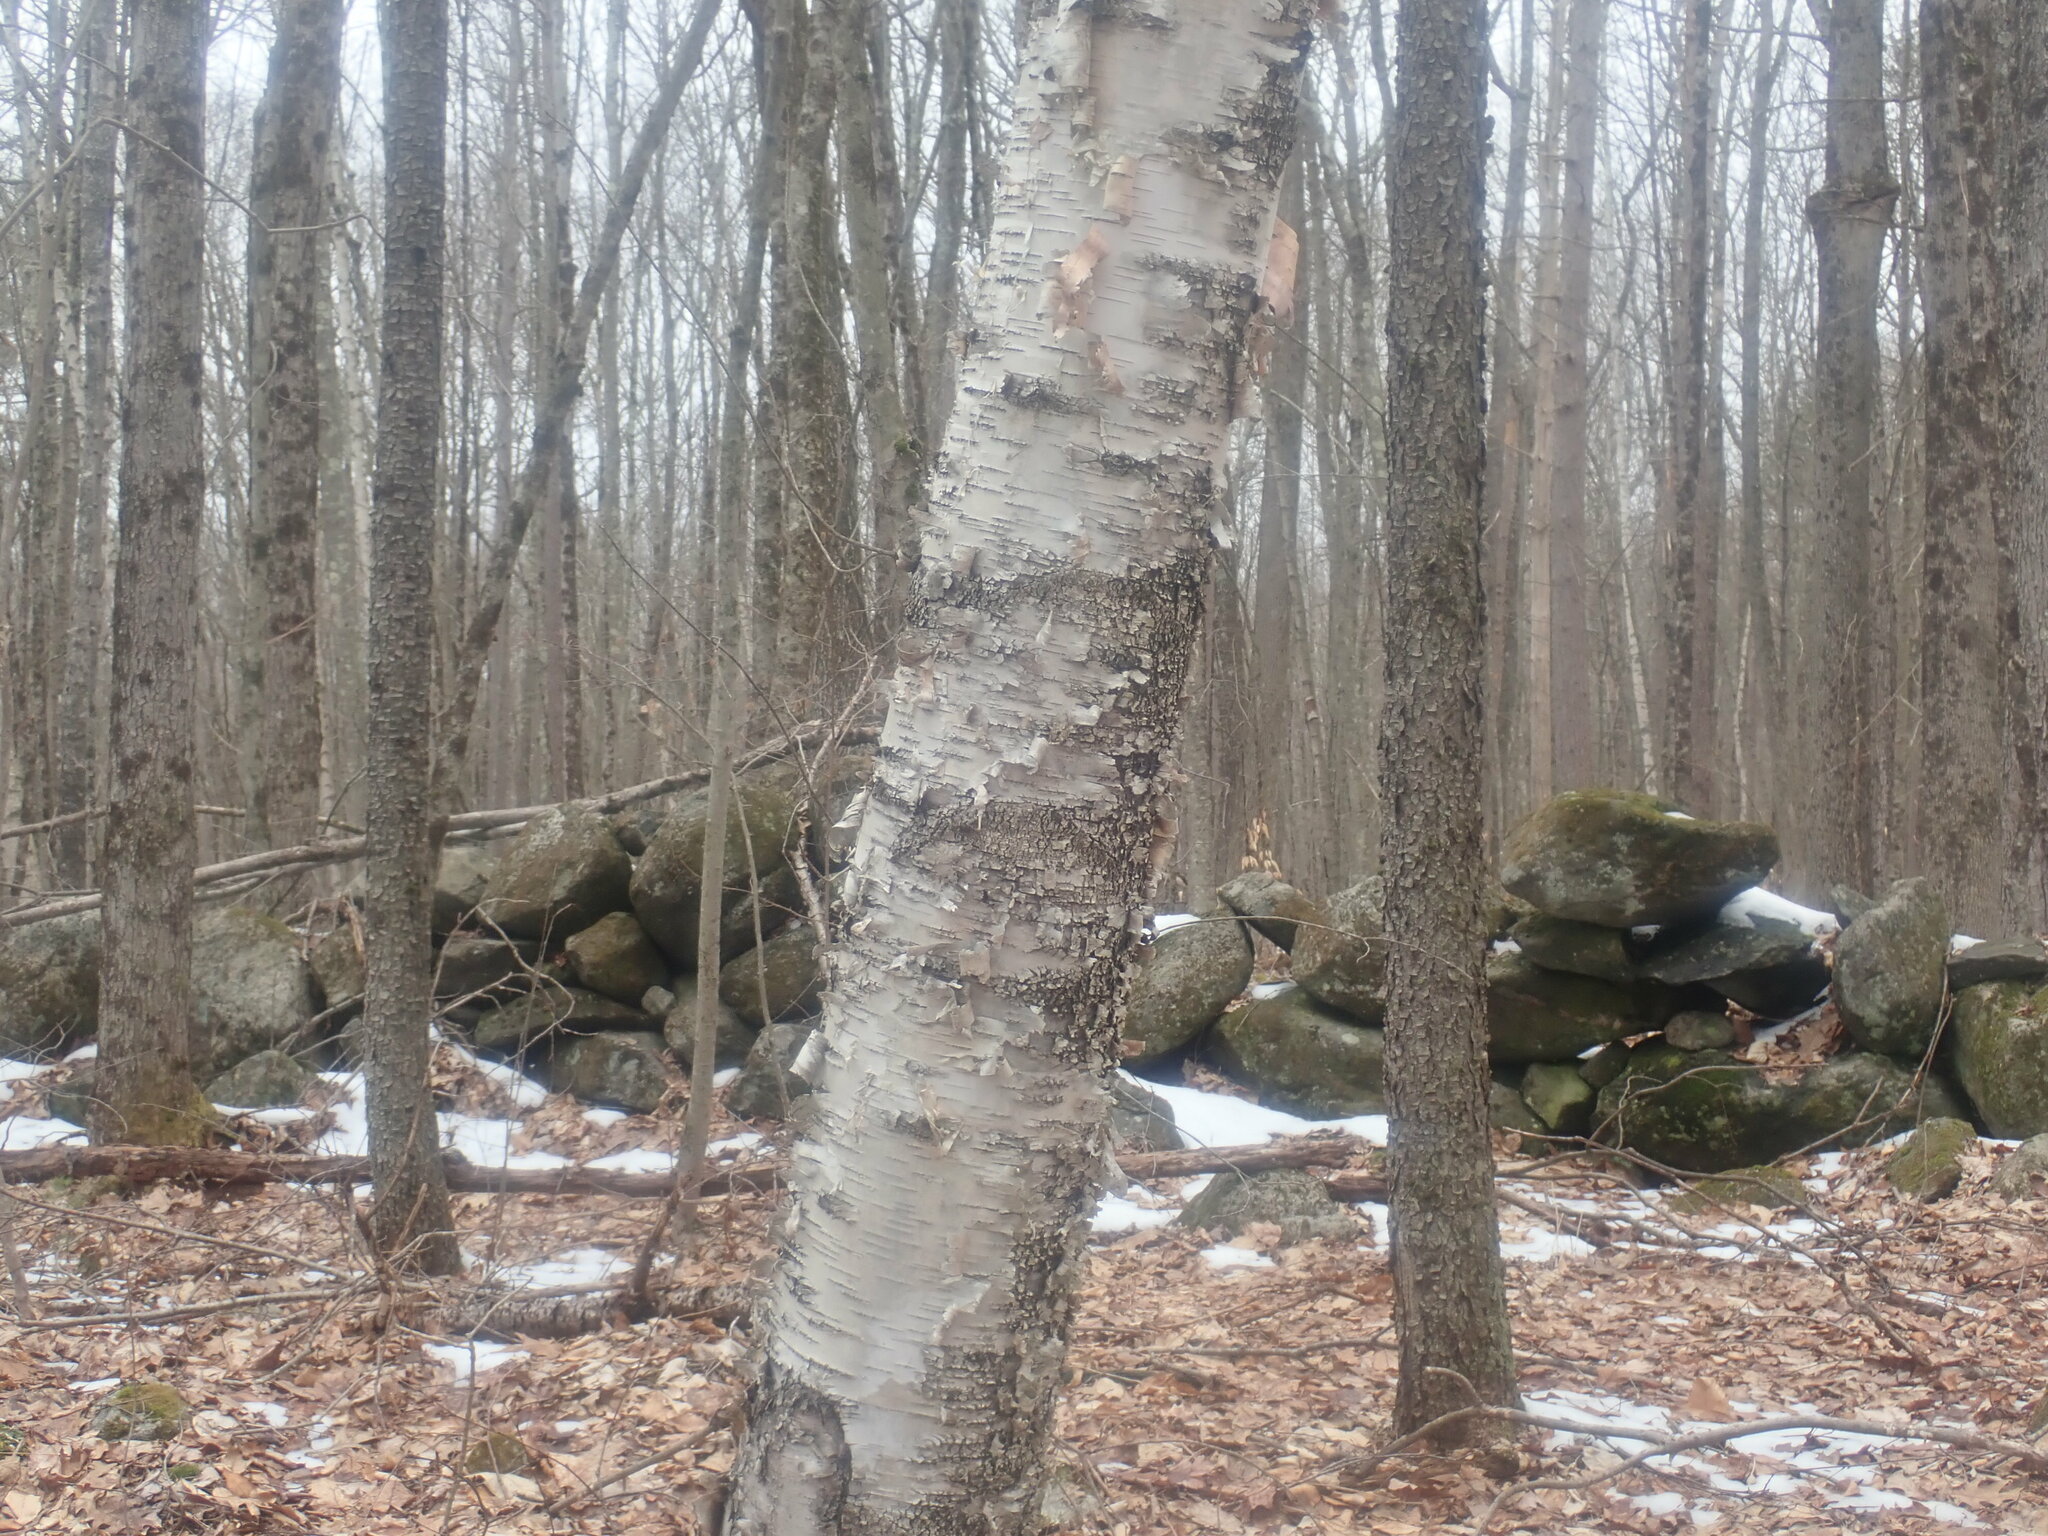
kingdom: Plantae
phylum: Tracheophyta
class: Magnoliopsida
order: Fagales
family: Betulaceae
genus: Betula
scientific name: Betula papyrifera
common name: Paper birch
